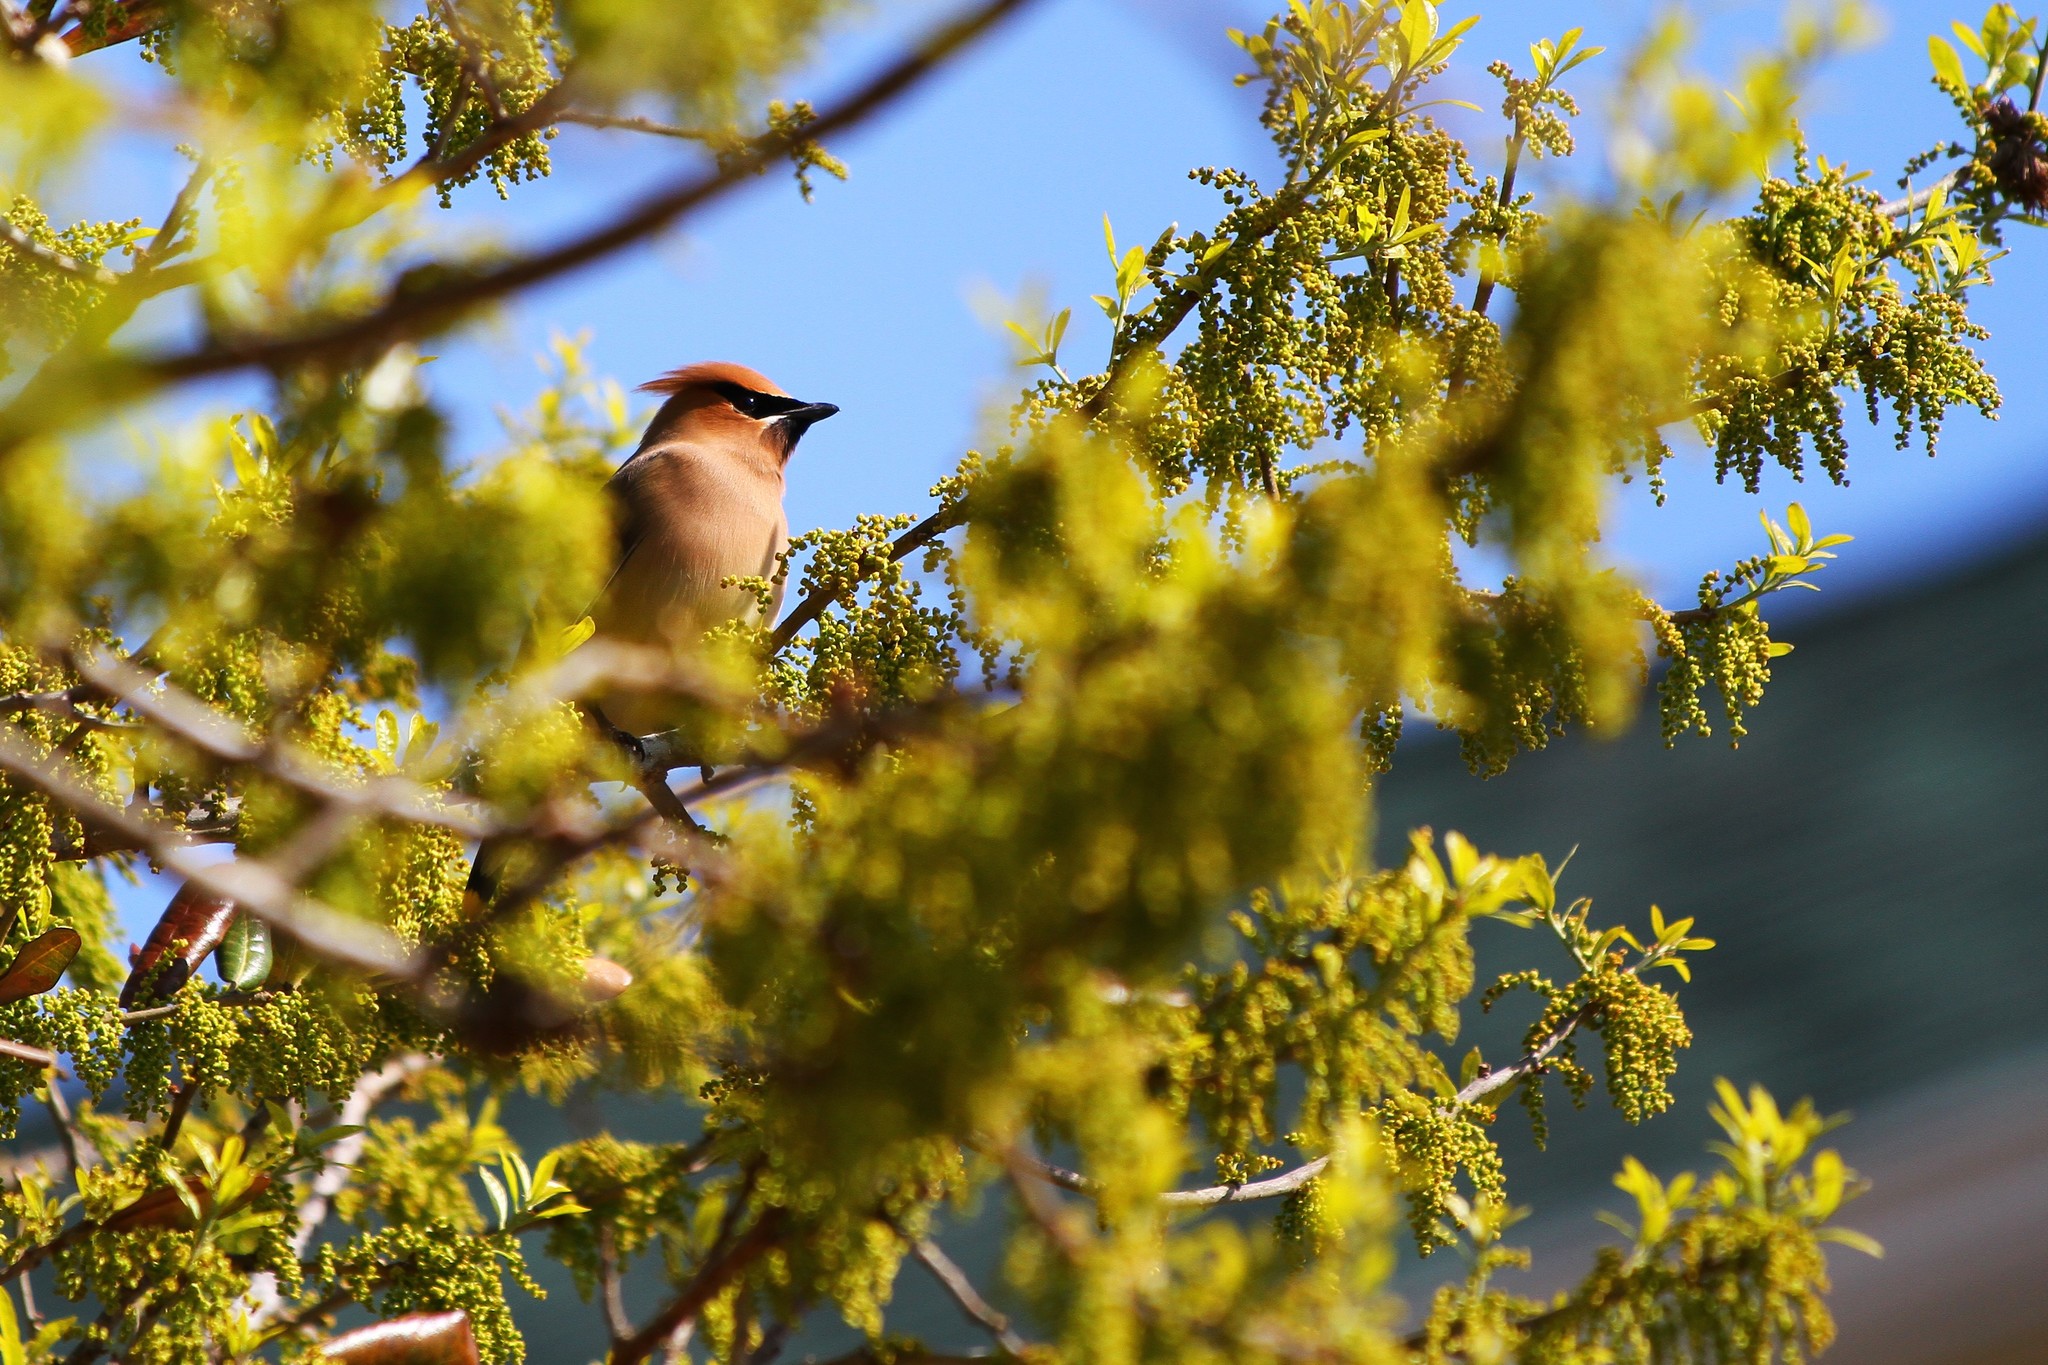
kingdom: Animalia
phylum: Chordata
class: Aves
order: Passeriformes
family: Bombycillidae
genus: Bombycilla
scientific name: Bombycilla cedrorum
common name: Cedar waxwing
